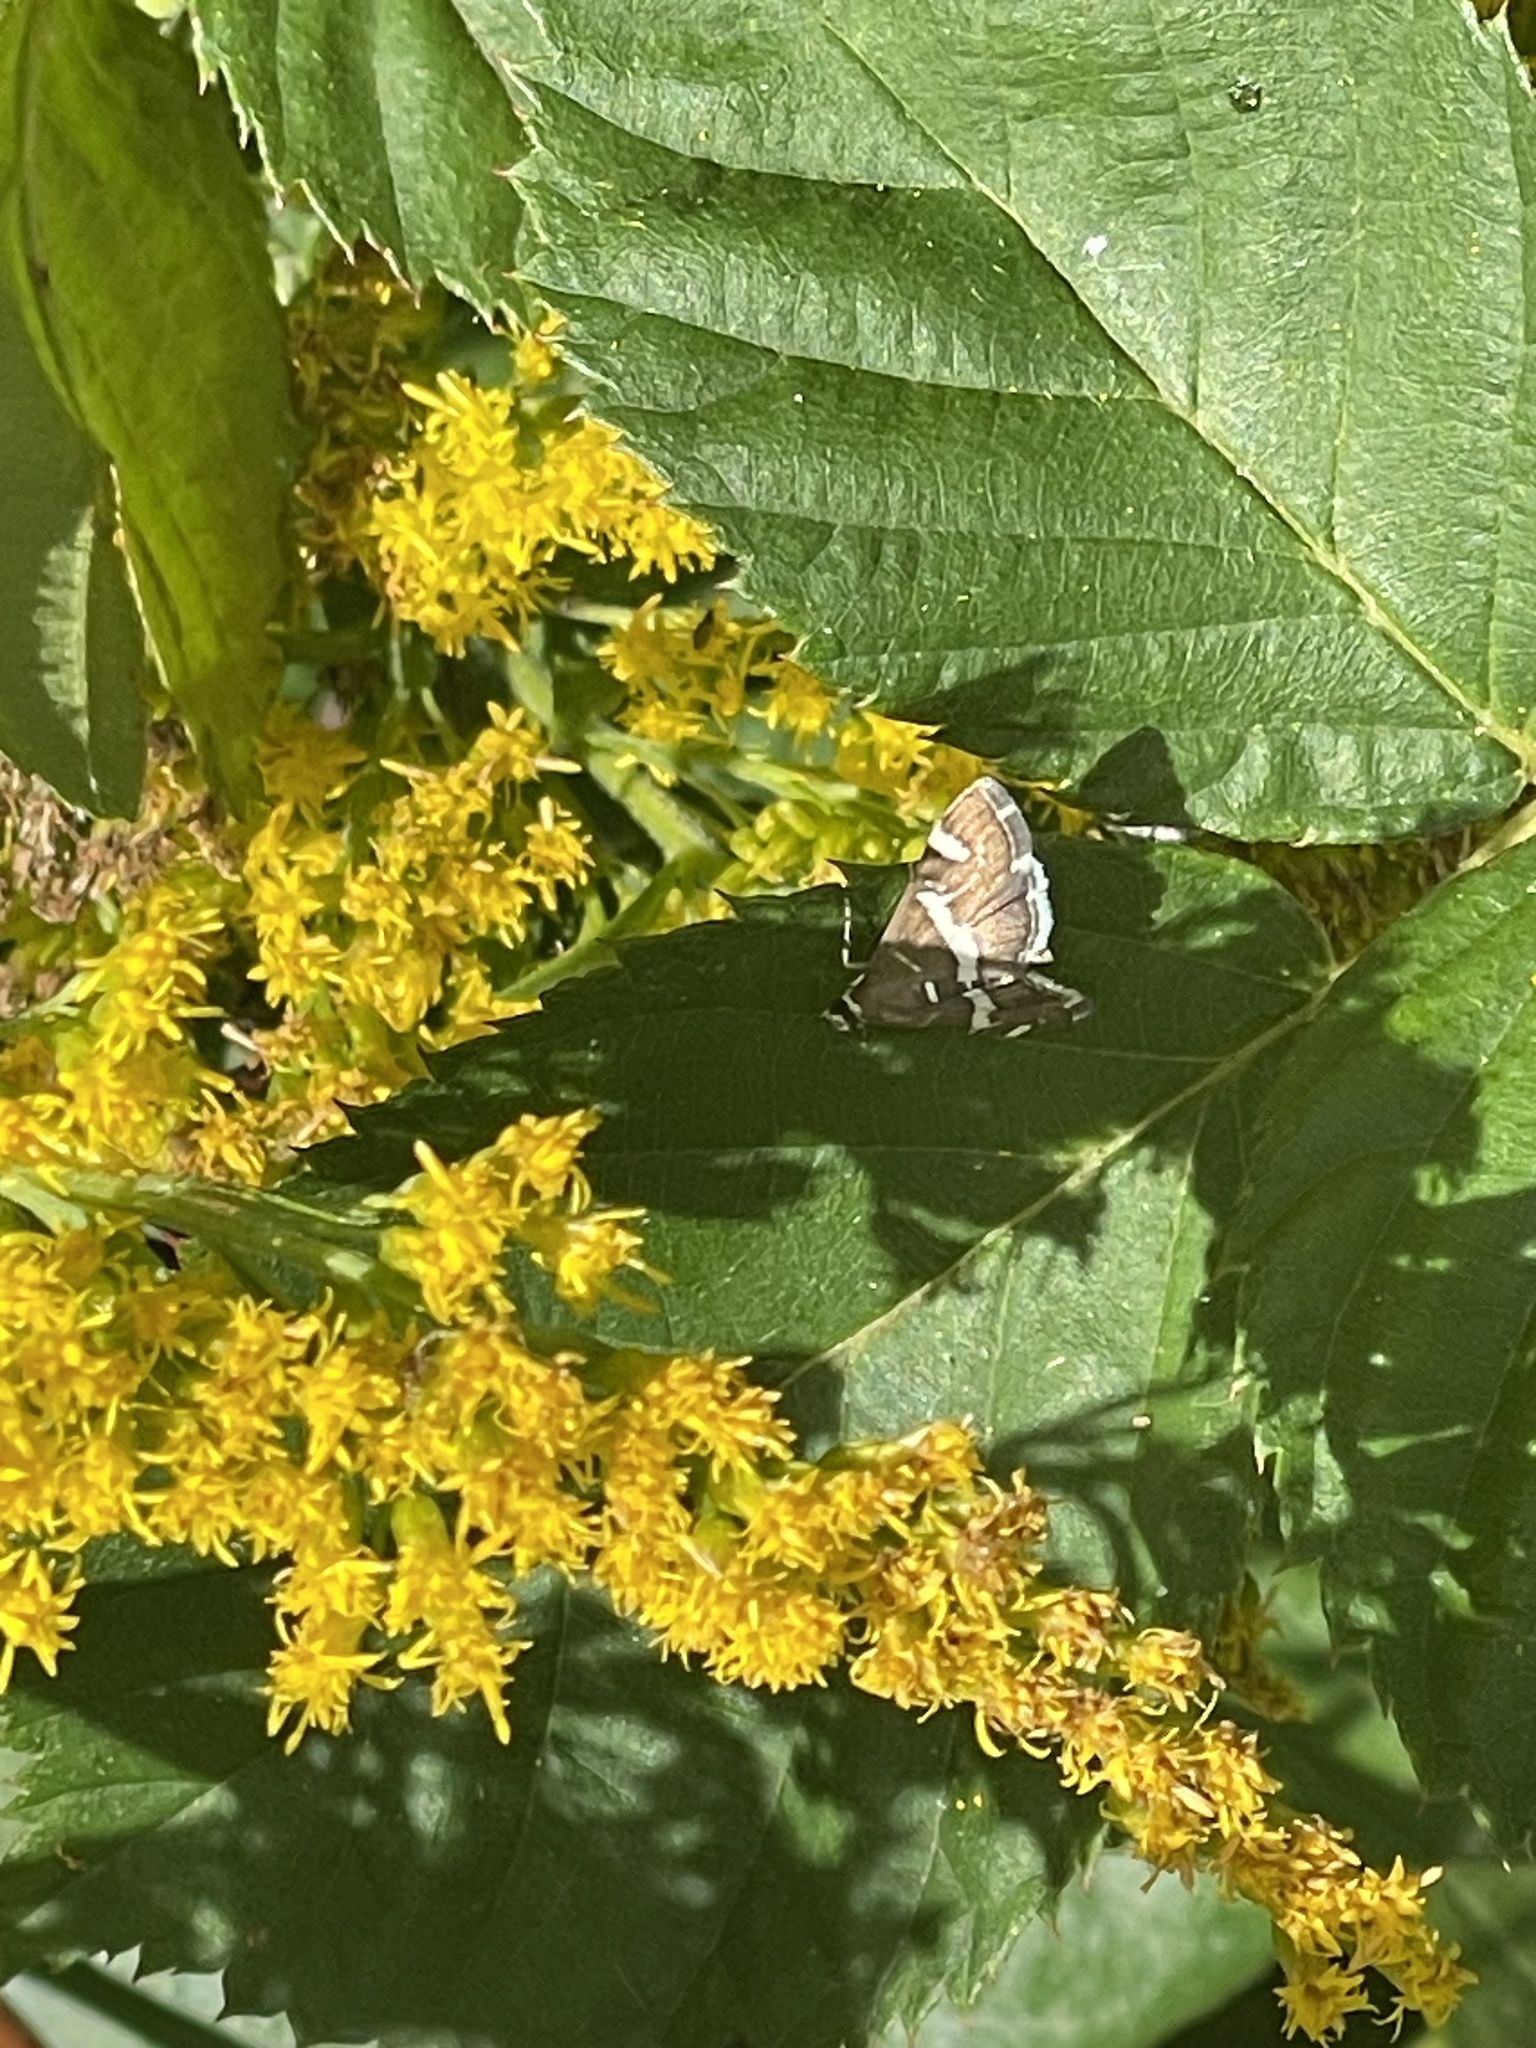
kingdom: Animalia
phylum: Arthropoda
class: Insecta
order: Lepidoptera
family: Crambidae
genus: Spoladea
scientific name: Spoladea recurvalis
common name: Beet webworm moth
